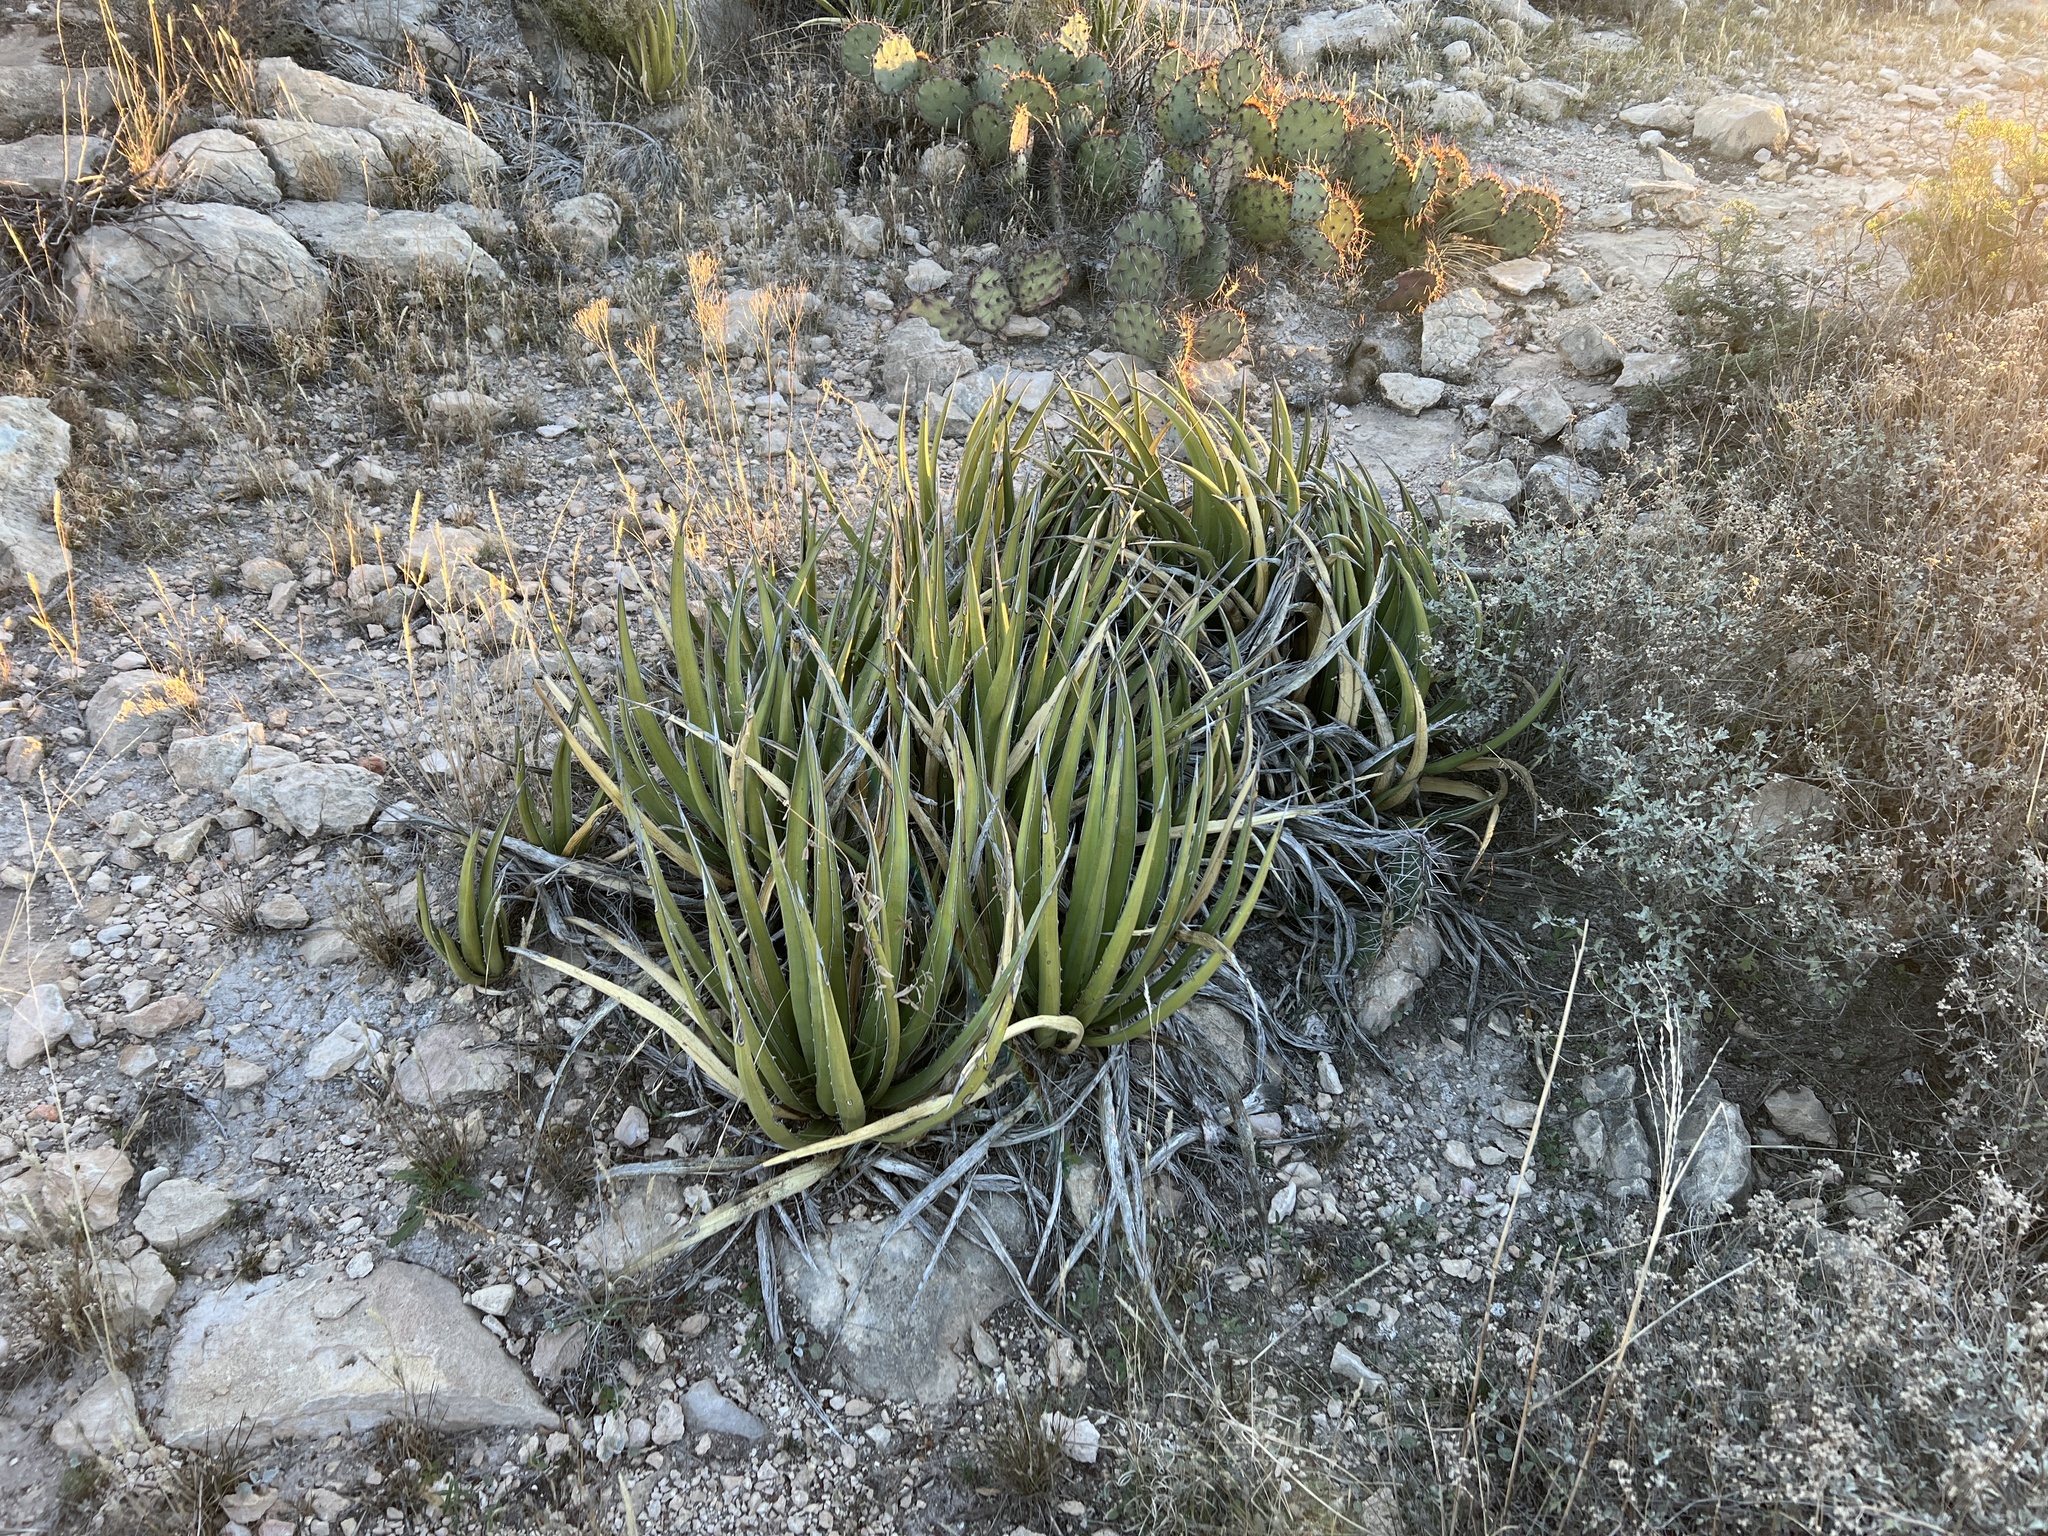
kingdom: Plantae
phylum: Tracheophyta
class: Liliopsida
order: Asparagales
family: Asparagaceae
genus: Agave
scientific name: Agave lechuguilla
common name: Lecheguilla agave
